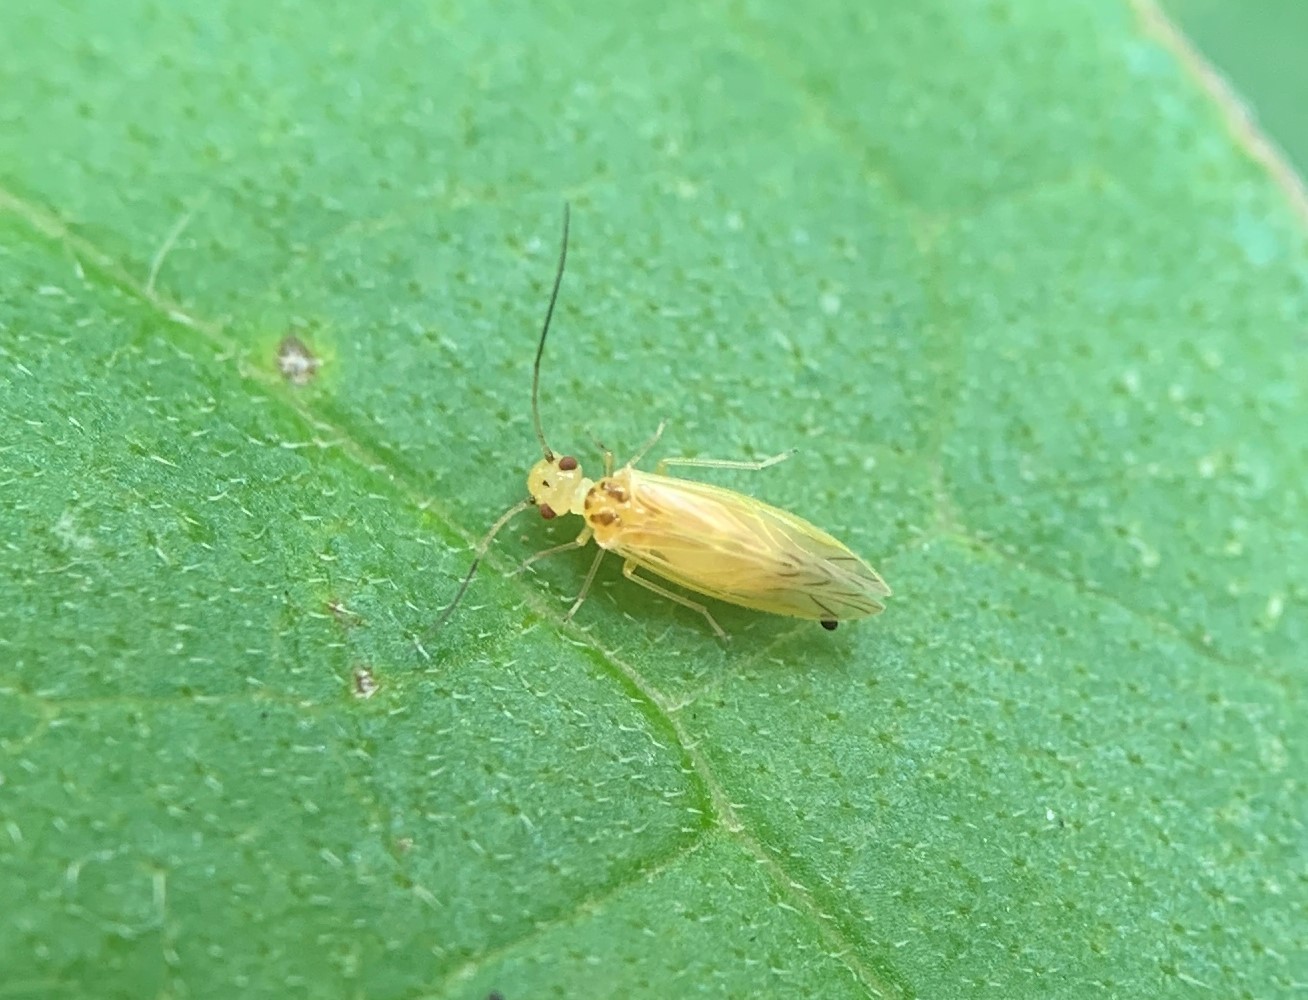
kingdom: Animalia
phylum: Arthropoda
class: Insecta
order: Psocodea
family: Caeciliusidae
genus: Valenzuela
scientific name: Valenzuela flavidus
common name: Yellow barklouse
